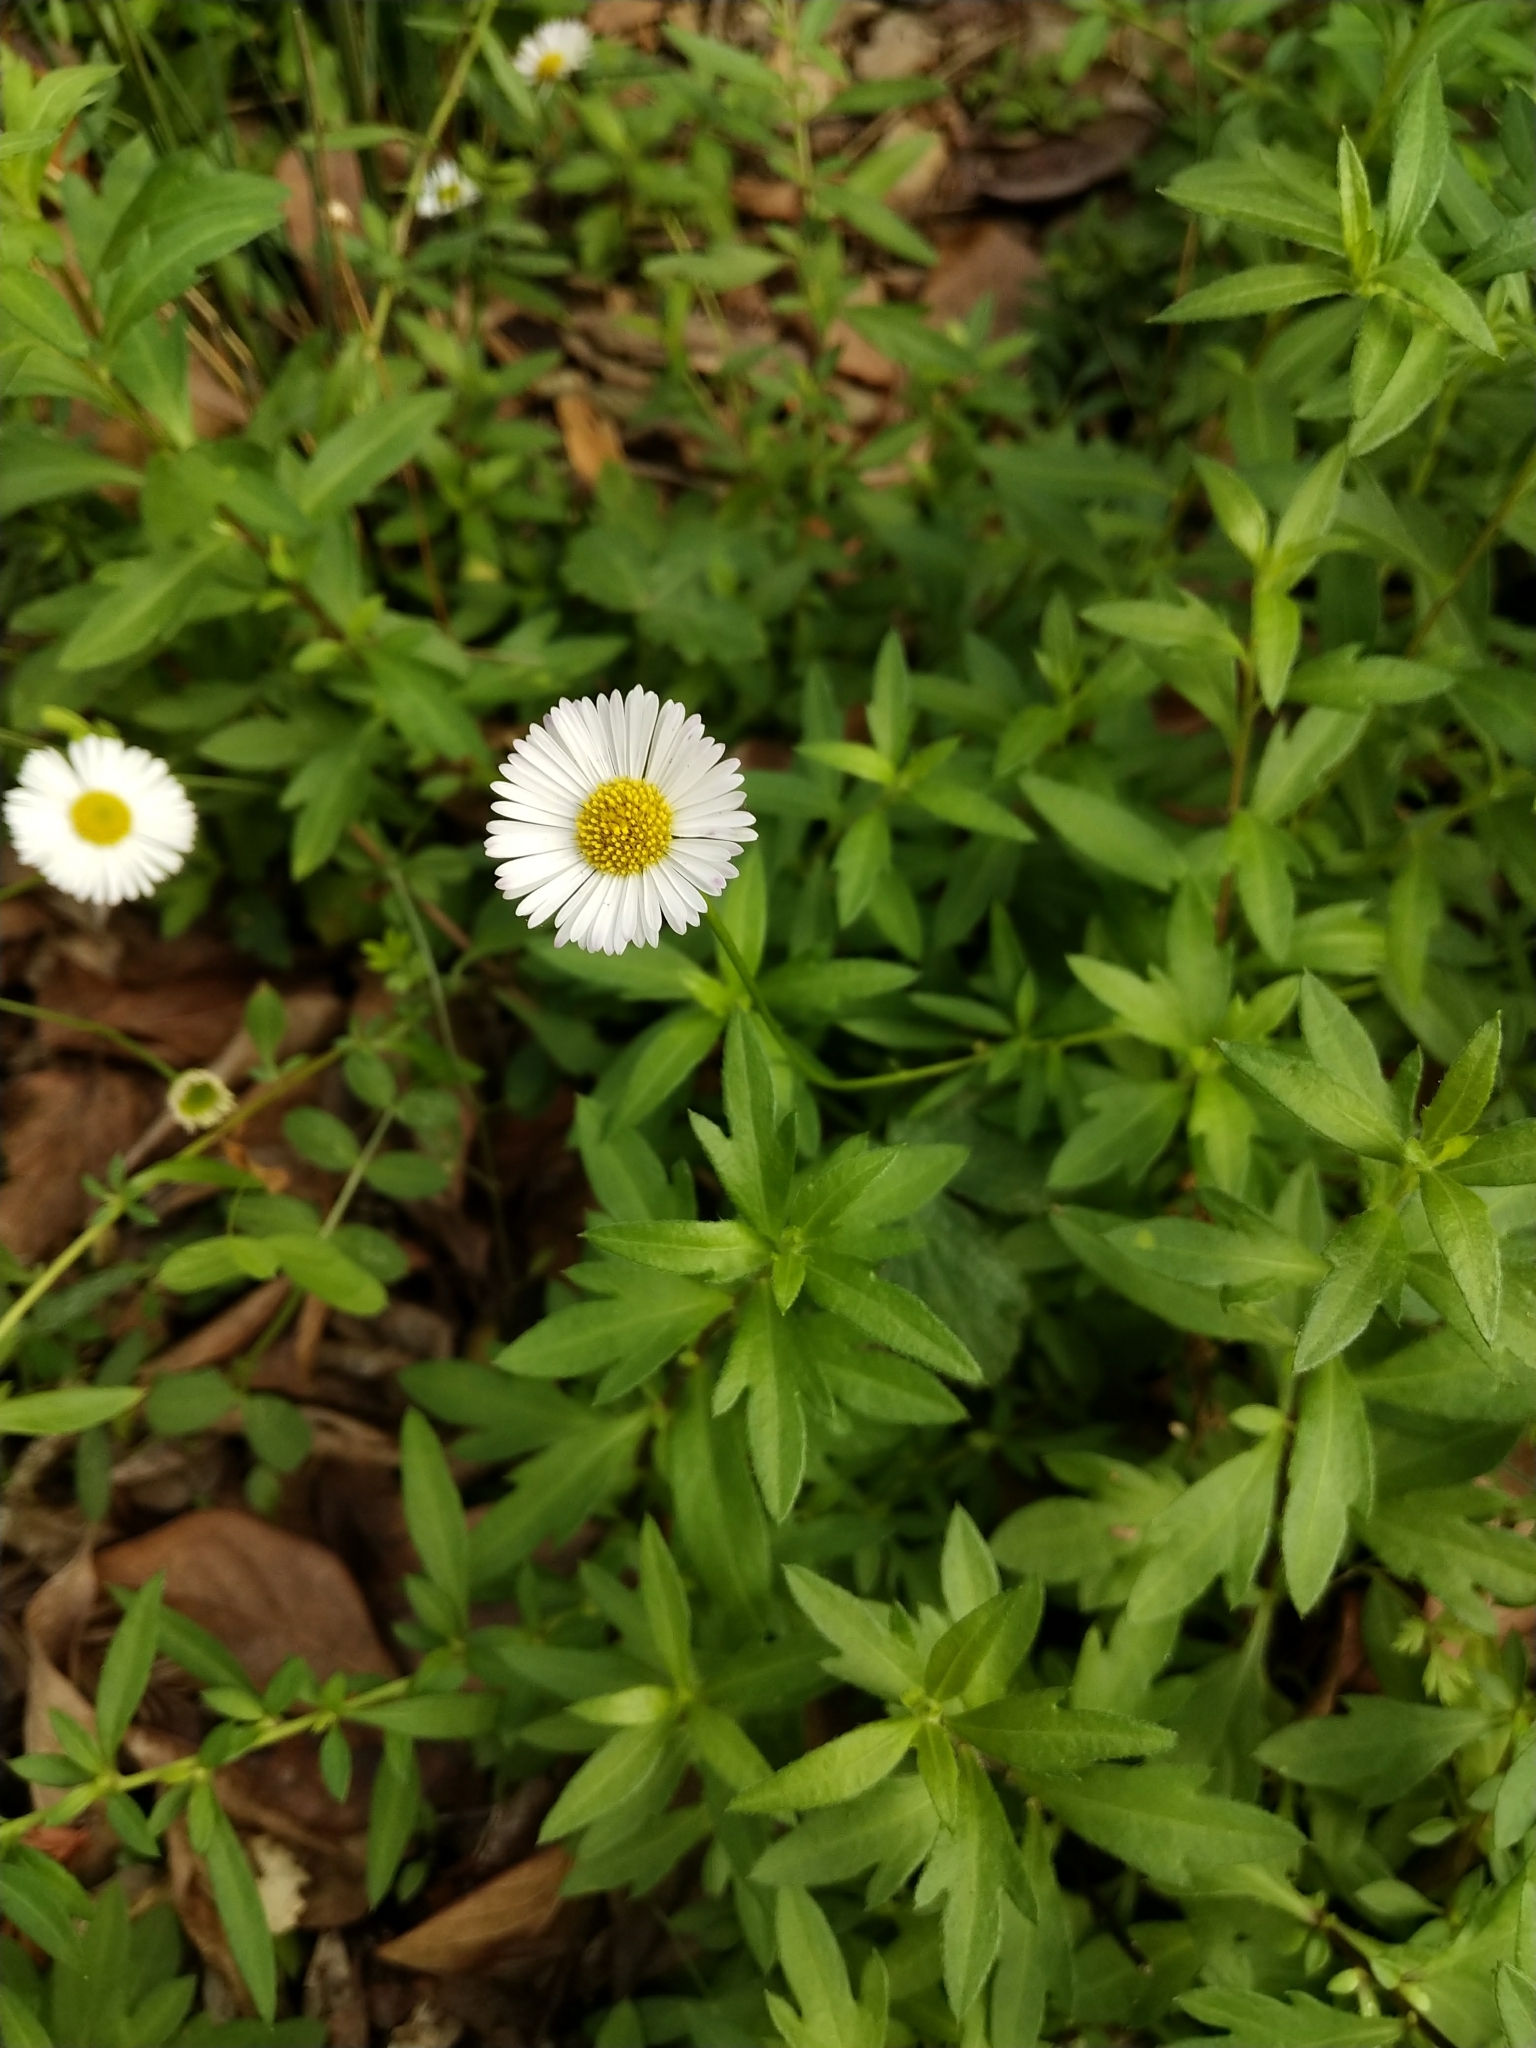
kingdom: Plantae
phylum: Tracheophyta
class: Magnoliopsida
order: Asterales
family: Asteraceae
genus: Erigeron
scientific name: Erigeron karvinskianus
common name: Mexican fleabane
